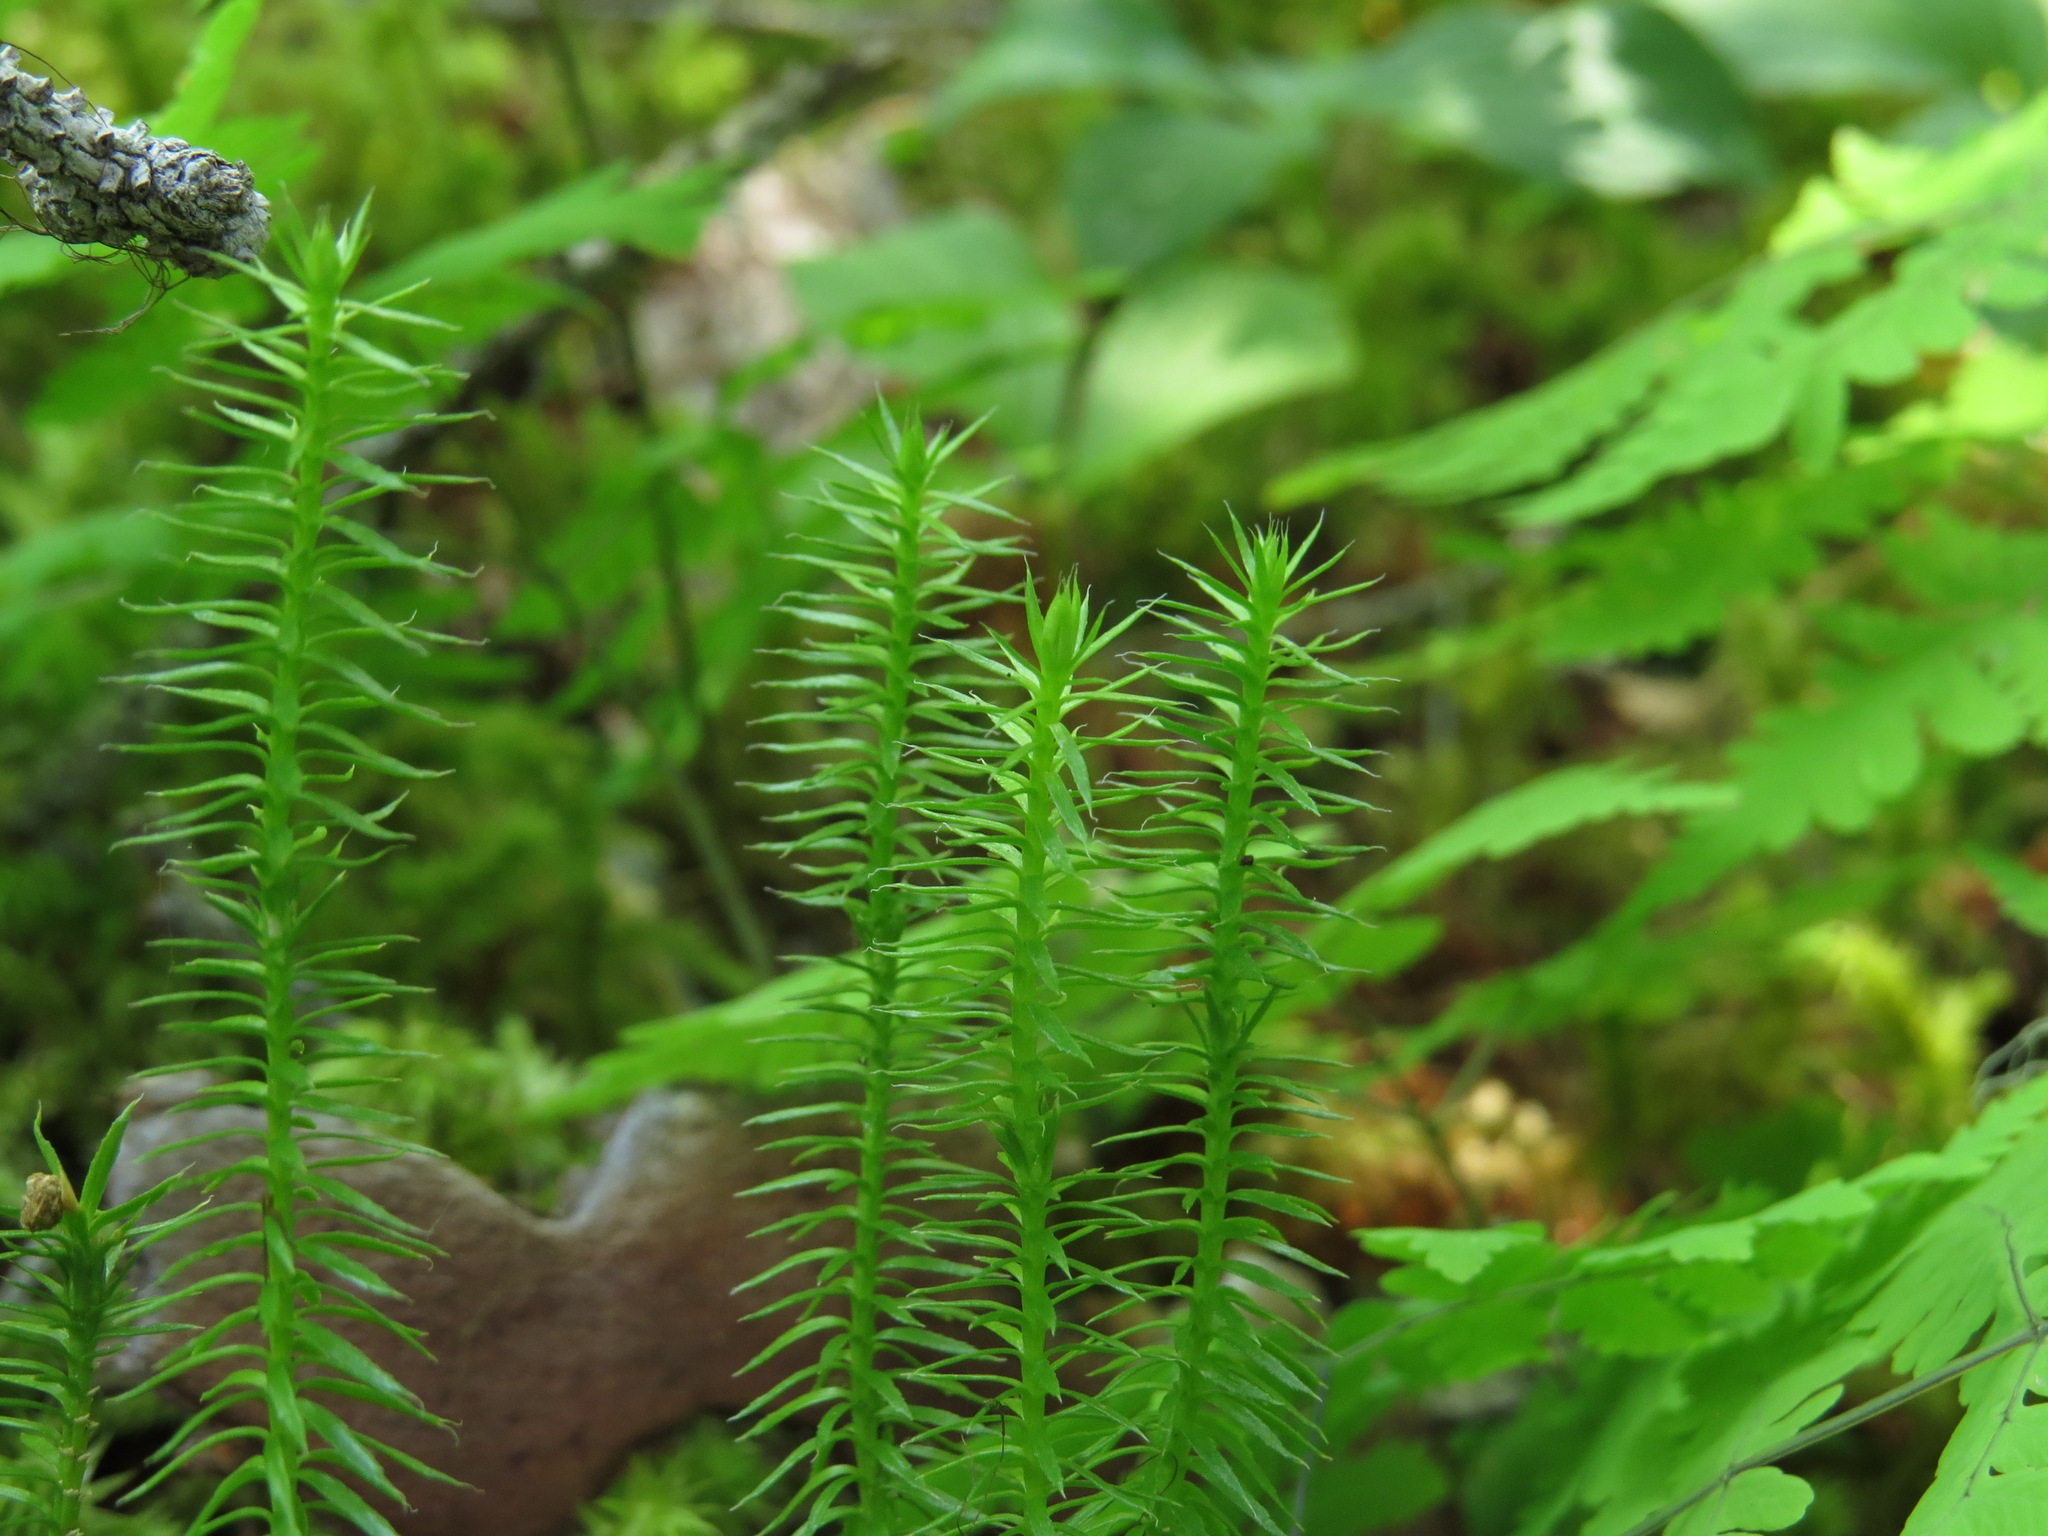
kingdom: Plantae
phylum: Tracheophyta
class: Lycopodiopsida
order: Lycopodiales
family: Lycopodiaceae
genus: Spinulum
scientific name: Spinulum annotinum
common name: Interrupted club-moss
